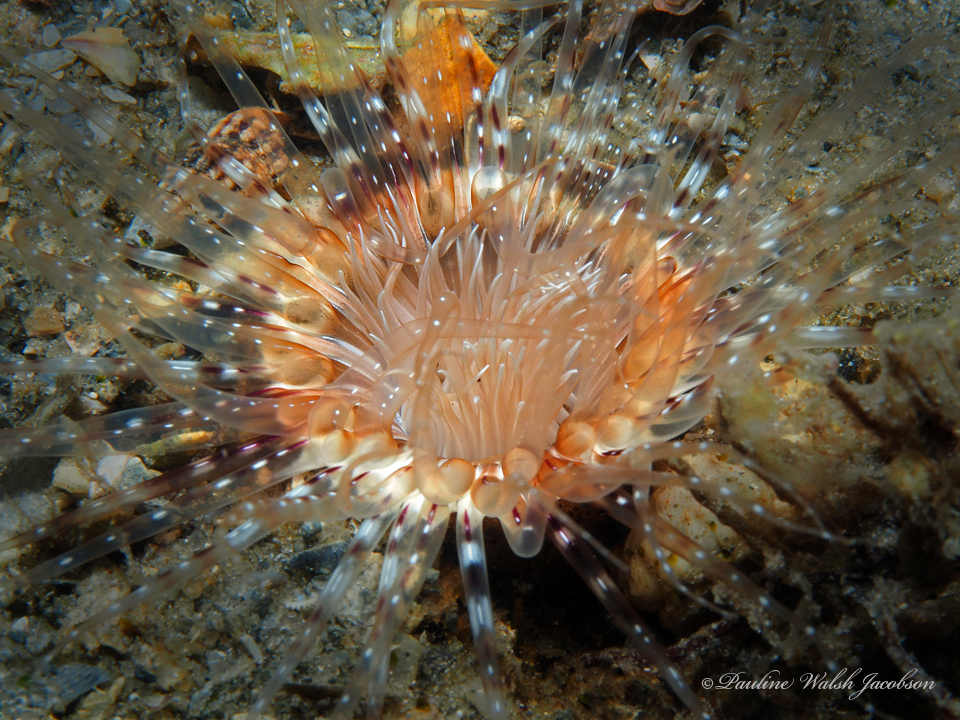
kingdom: Animalia
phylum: Cnidaria
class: Anthozoa
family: Cerianthidae
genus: Ceriantheopsis
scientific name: Ceriantheopsis americana
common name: American tube-dwelling anemone
